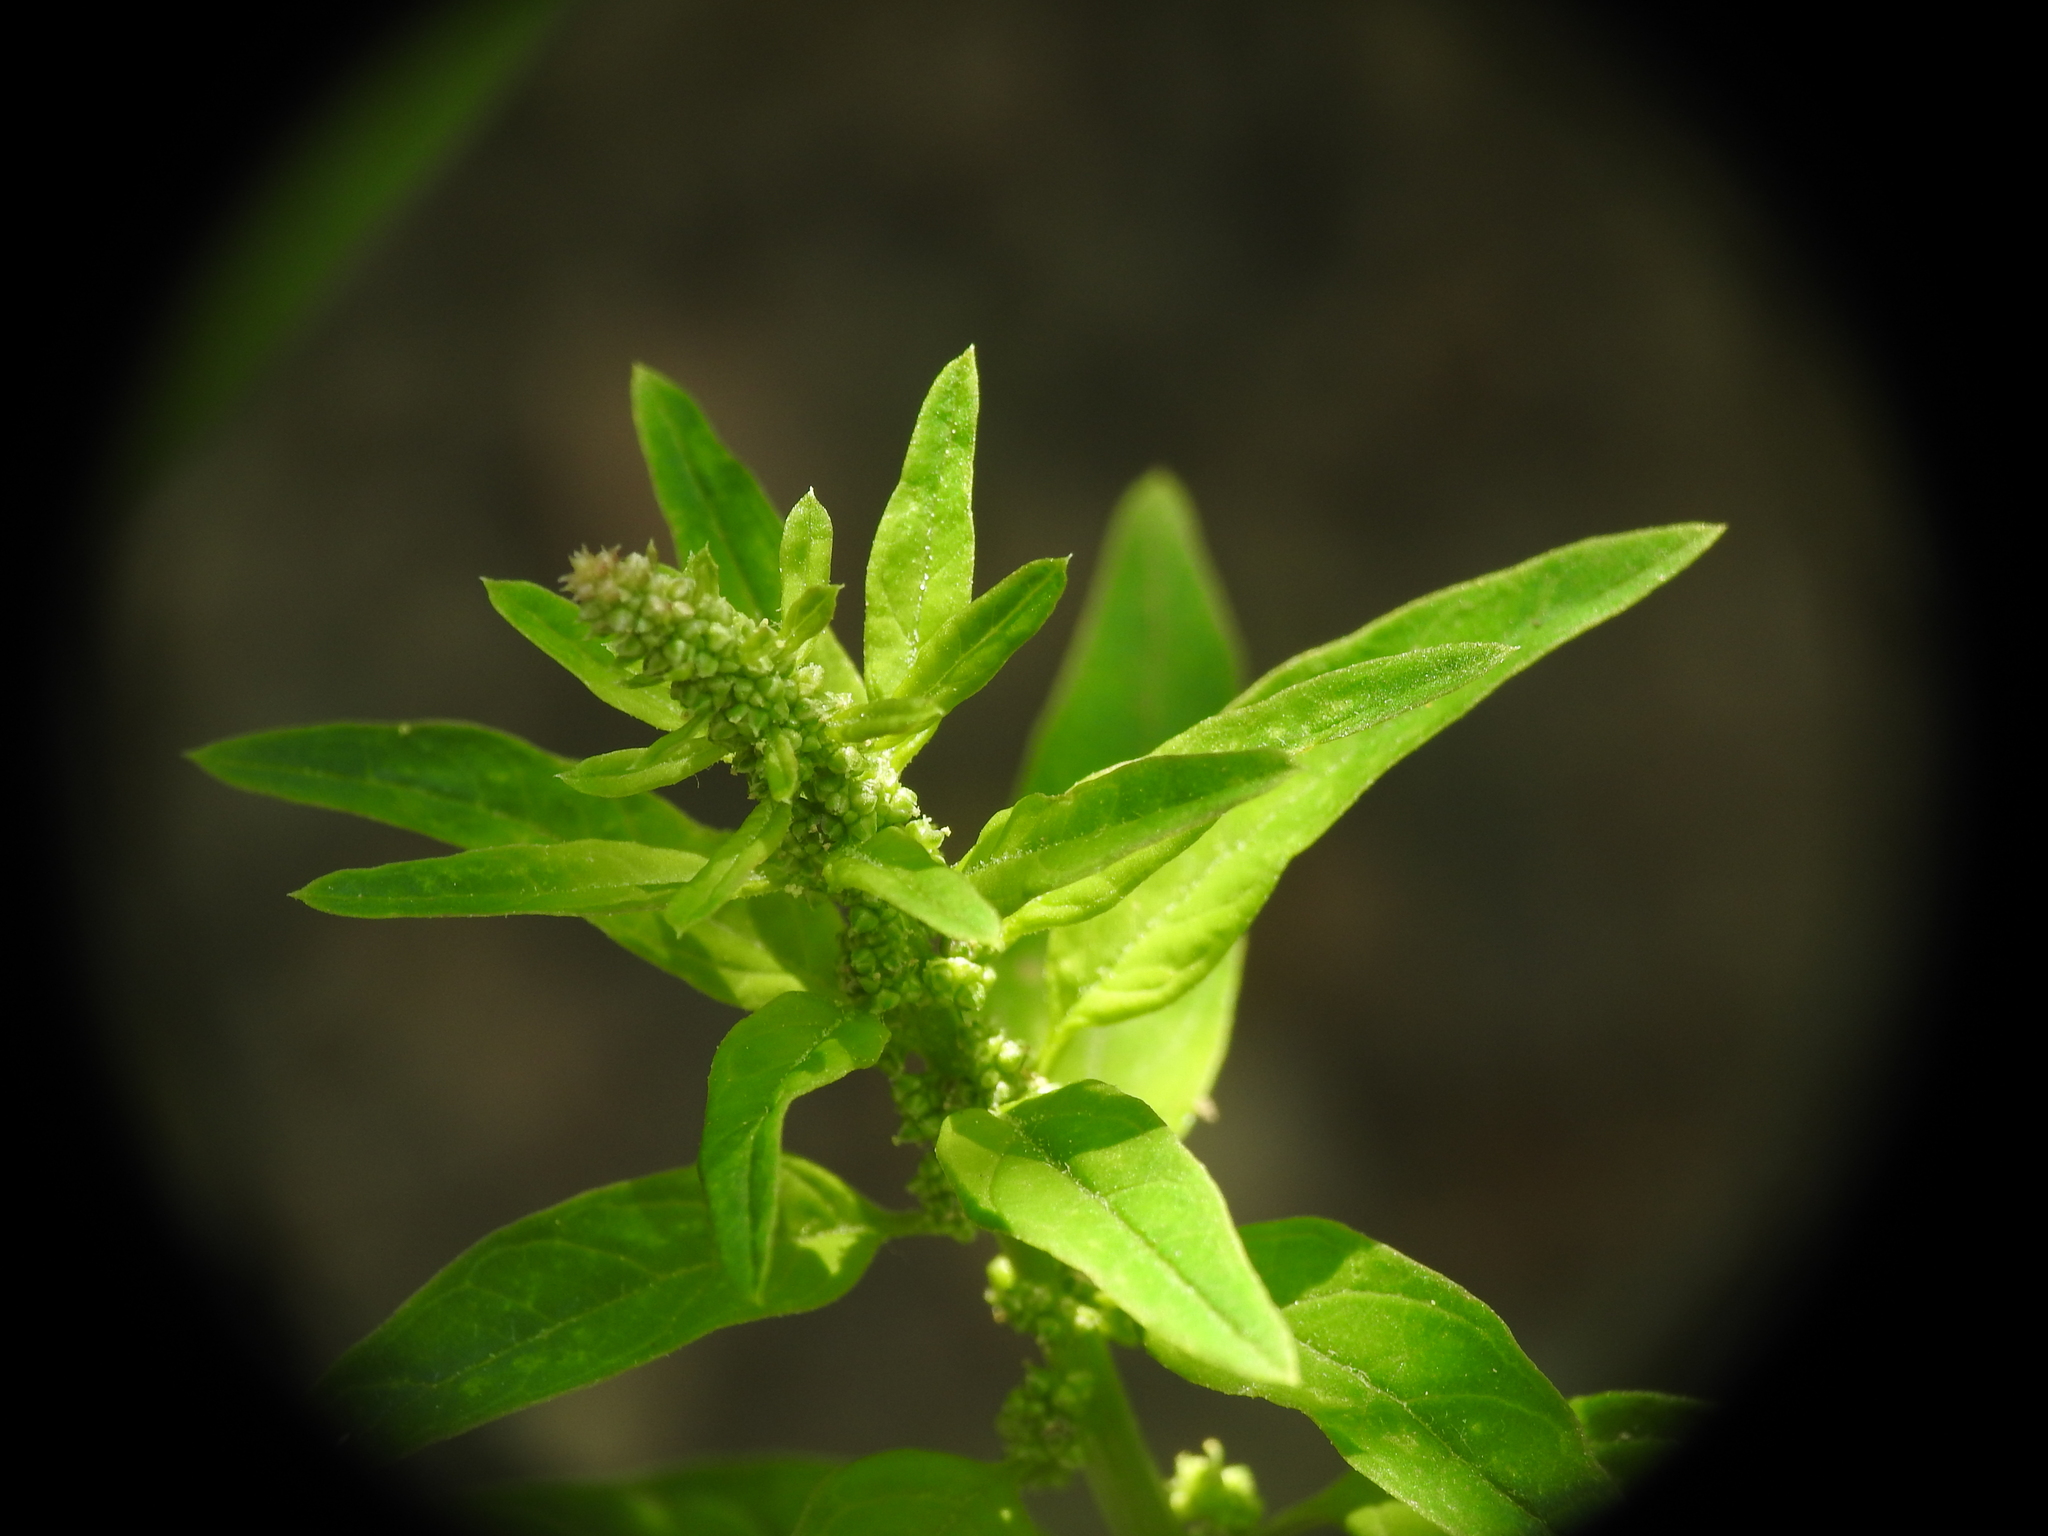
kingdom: Plantae
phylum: Tracheophyta
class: Magnoliopsida
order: Caryophyllales
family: Amaranthaceae
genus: Lipandra
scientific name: Lipandra polysperma
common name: Many-seed goosefoot
